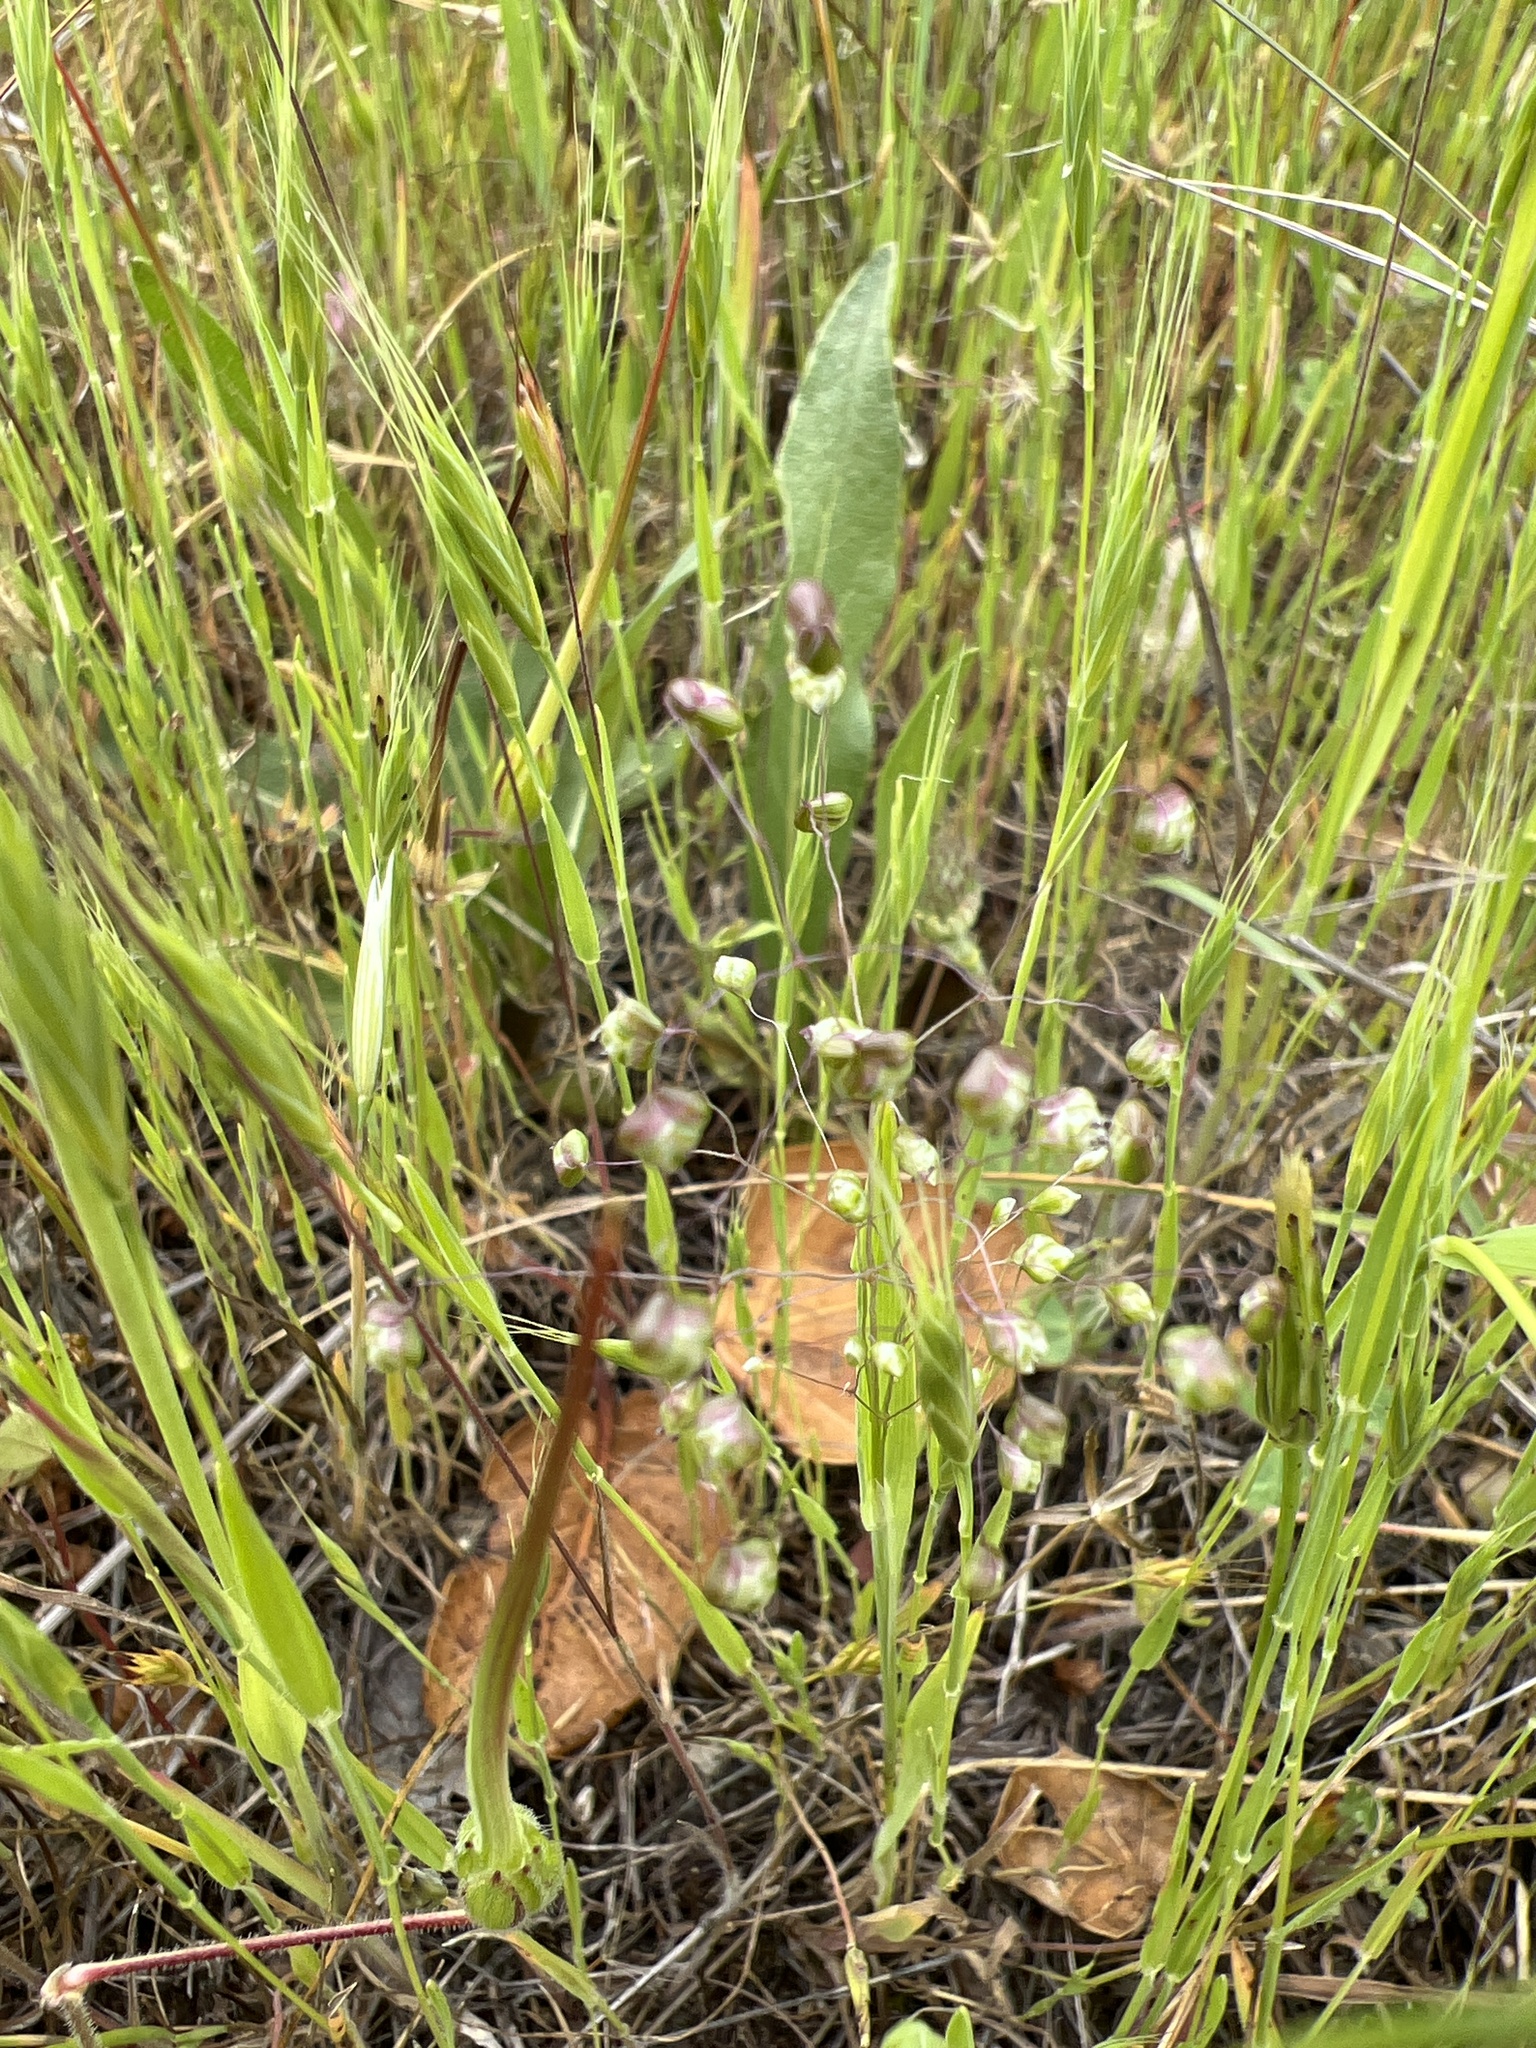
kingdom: Plantae
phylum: Tracheophyta
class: Liliopsida
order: Poales
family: Poaceae
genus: Briza
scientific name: Briza minor
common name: Lesser quaking-grass
